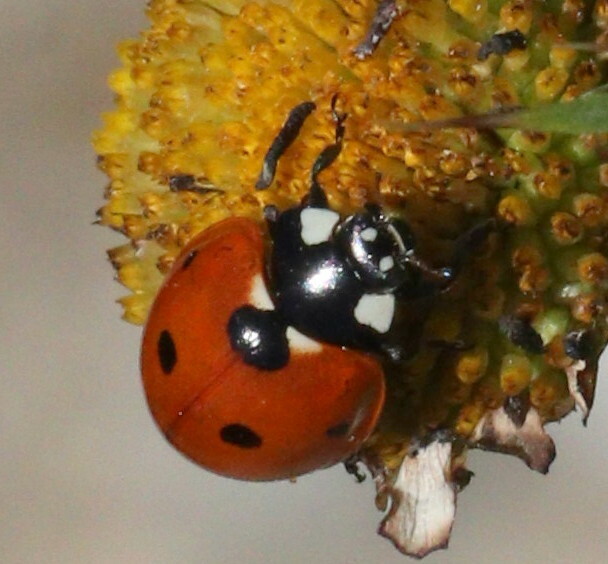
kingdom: Animalia
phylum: Arthropoda
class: Insecta
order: Coleoptera
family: Coccinellidae
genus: Coccinella
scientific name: Coccinella septempunctata
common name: Sevenspotted lady beetle
